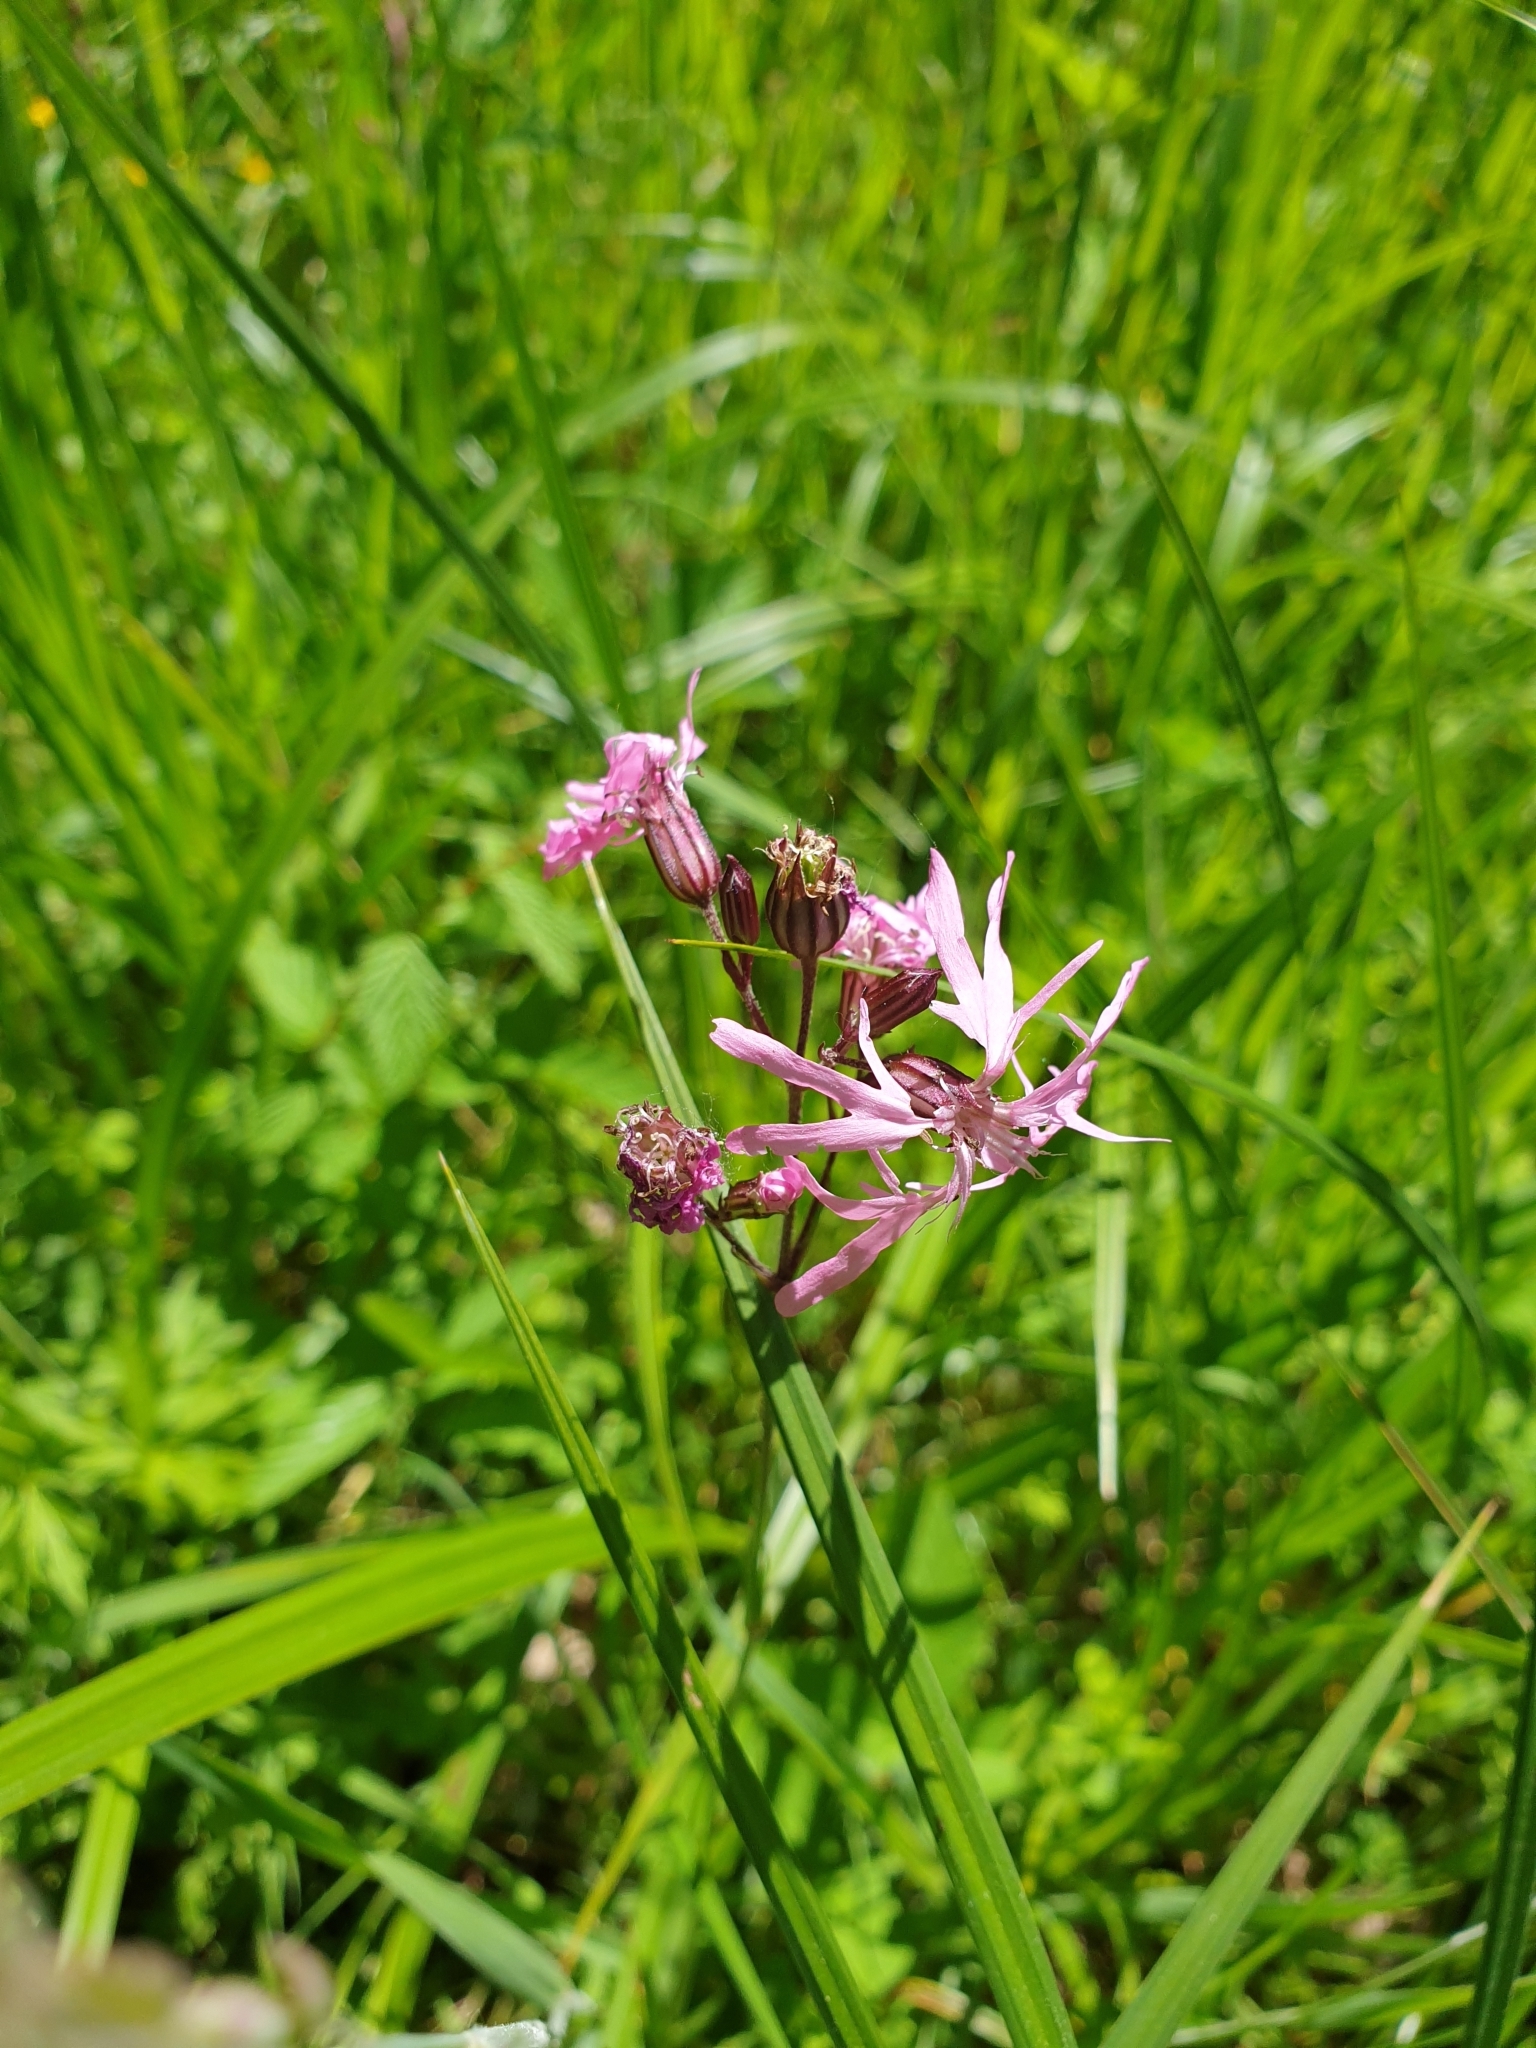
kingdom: Plantae
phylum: Tracheophyta
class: Magnoliopsida
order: Caryophyllales
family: Caryophyllaceae
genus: Silene
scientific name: Silene flos-cuculi
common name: Ragged-robin
